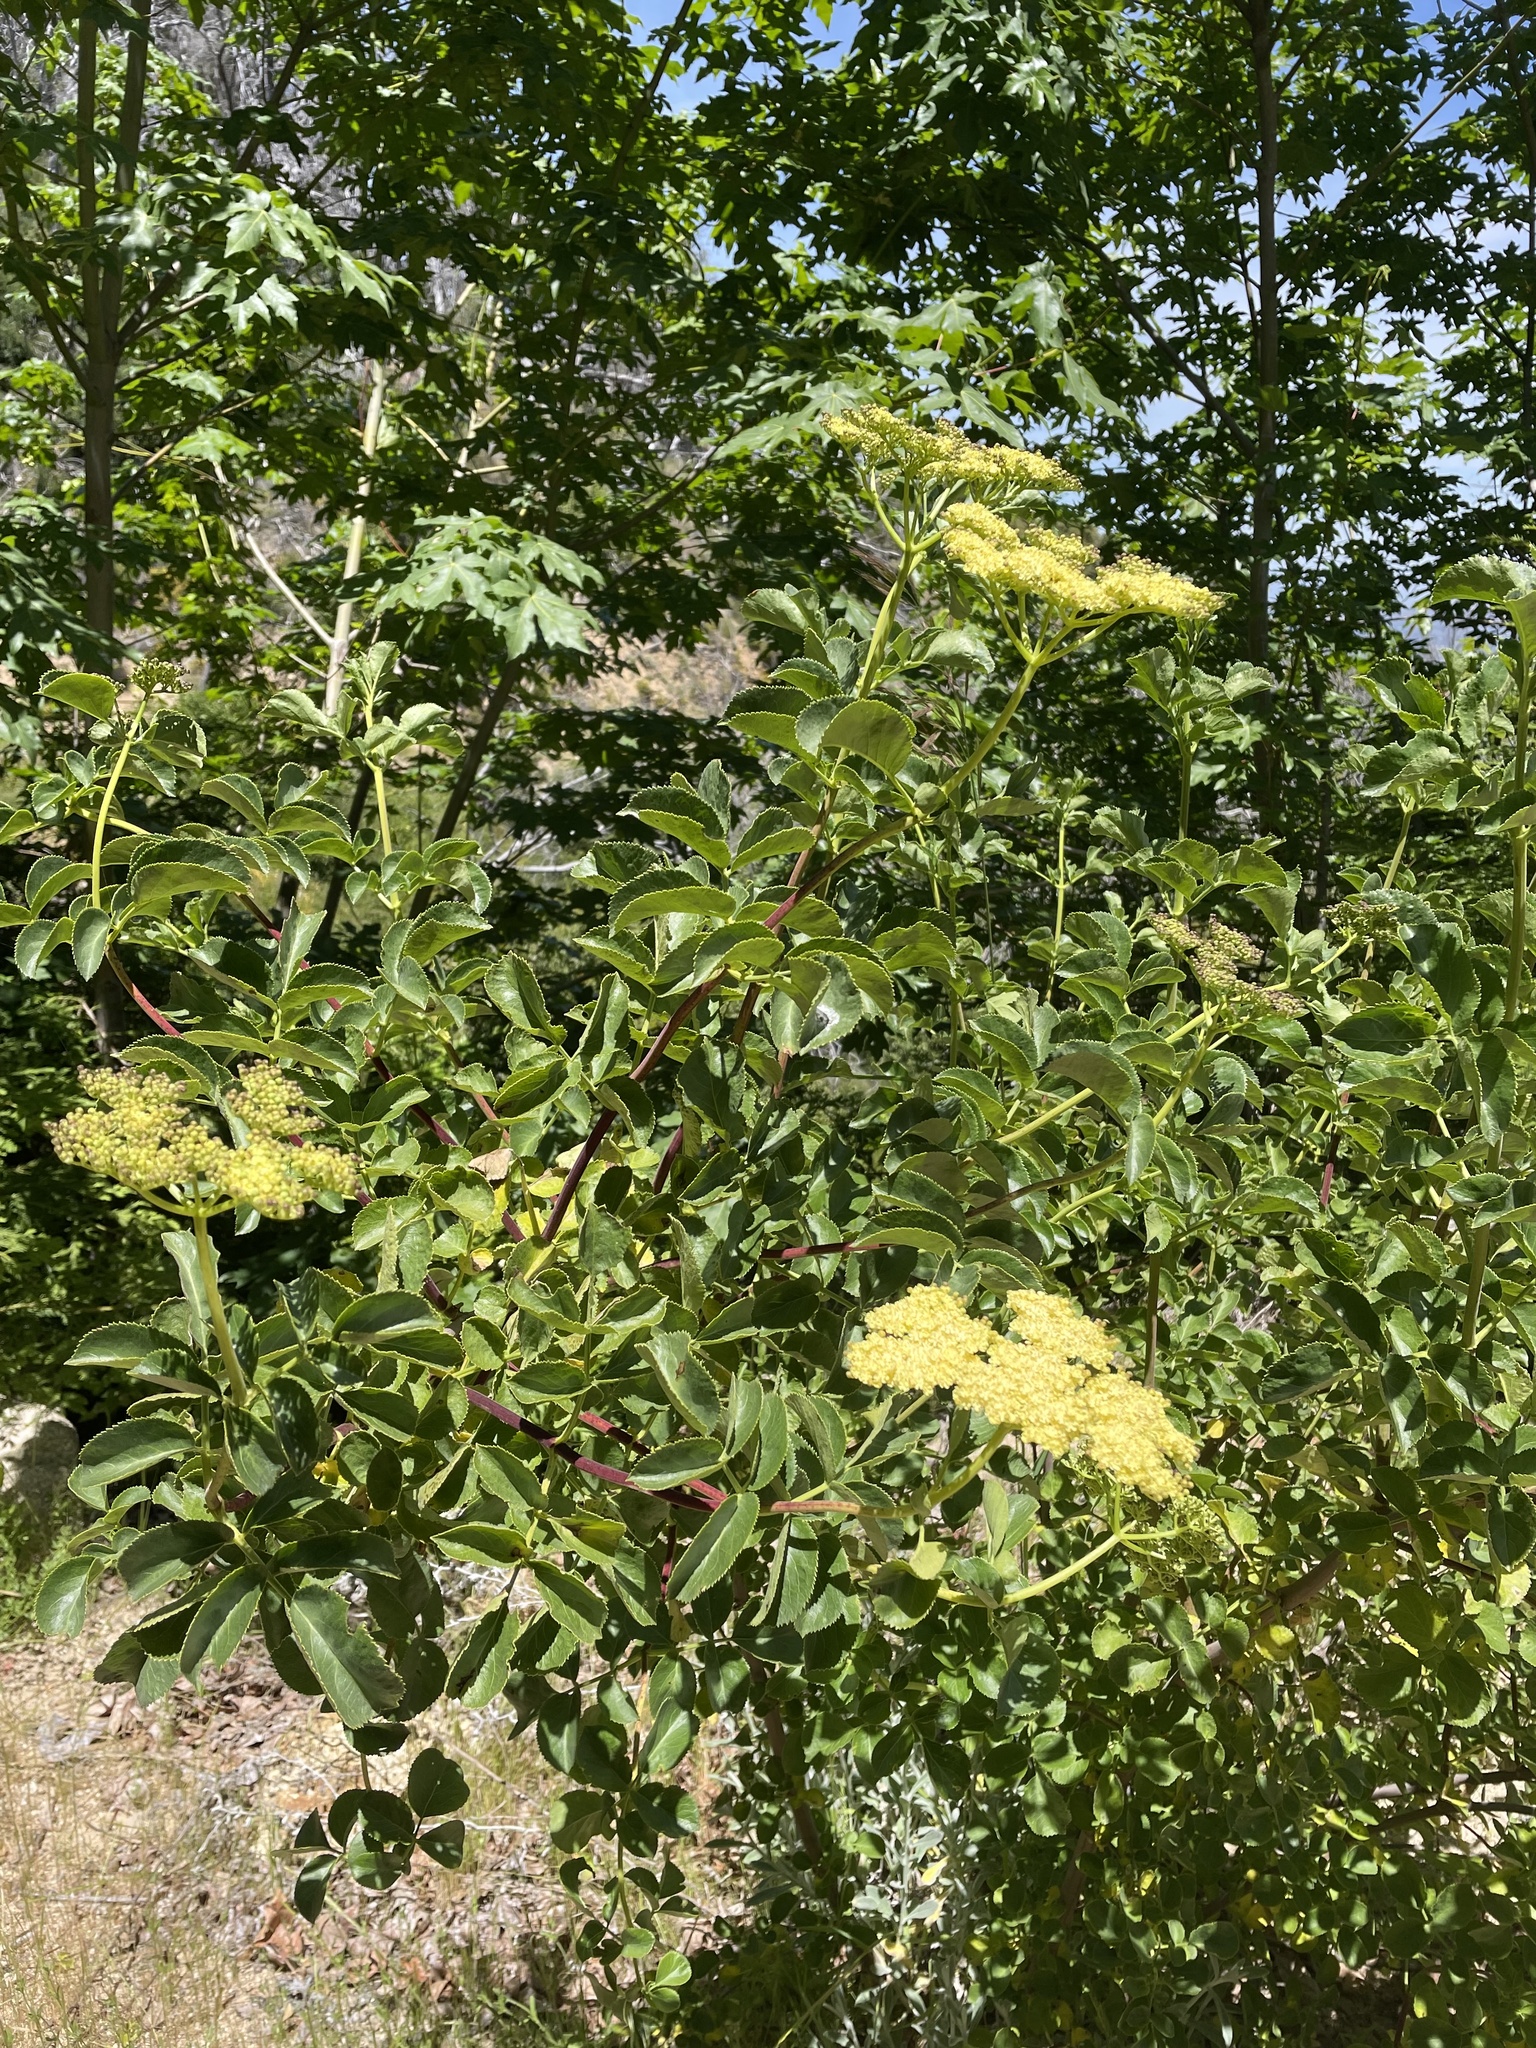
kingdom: Plantae
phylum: Tracheophyta
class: Magnoliopsida
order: Dipsacales
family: Viburnaceae
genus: Sambucus
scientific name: Sambucus cerulea
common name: Blue elder
